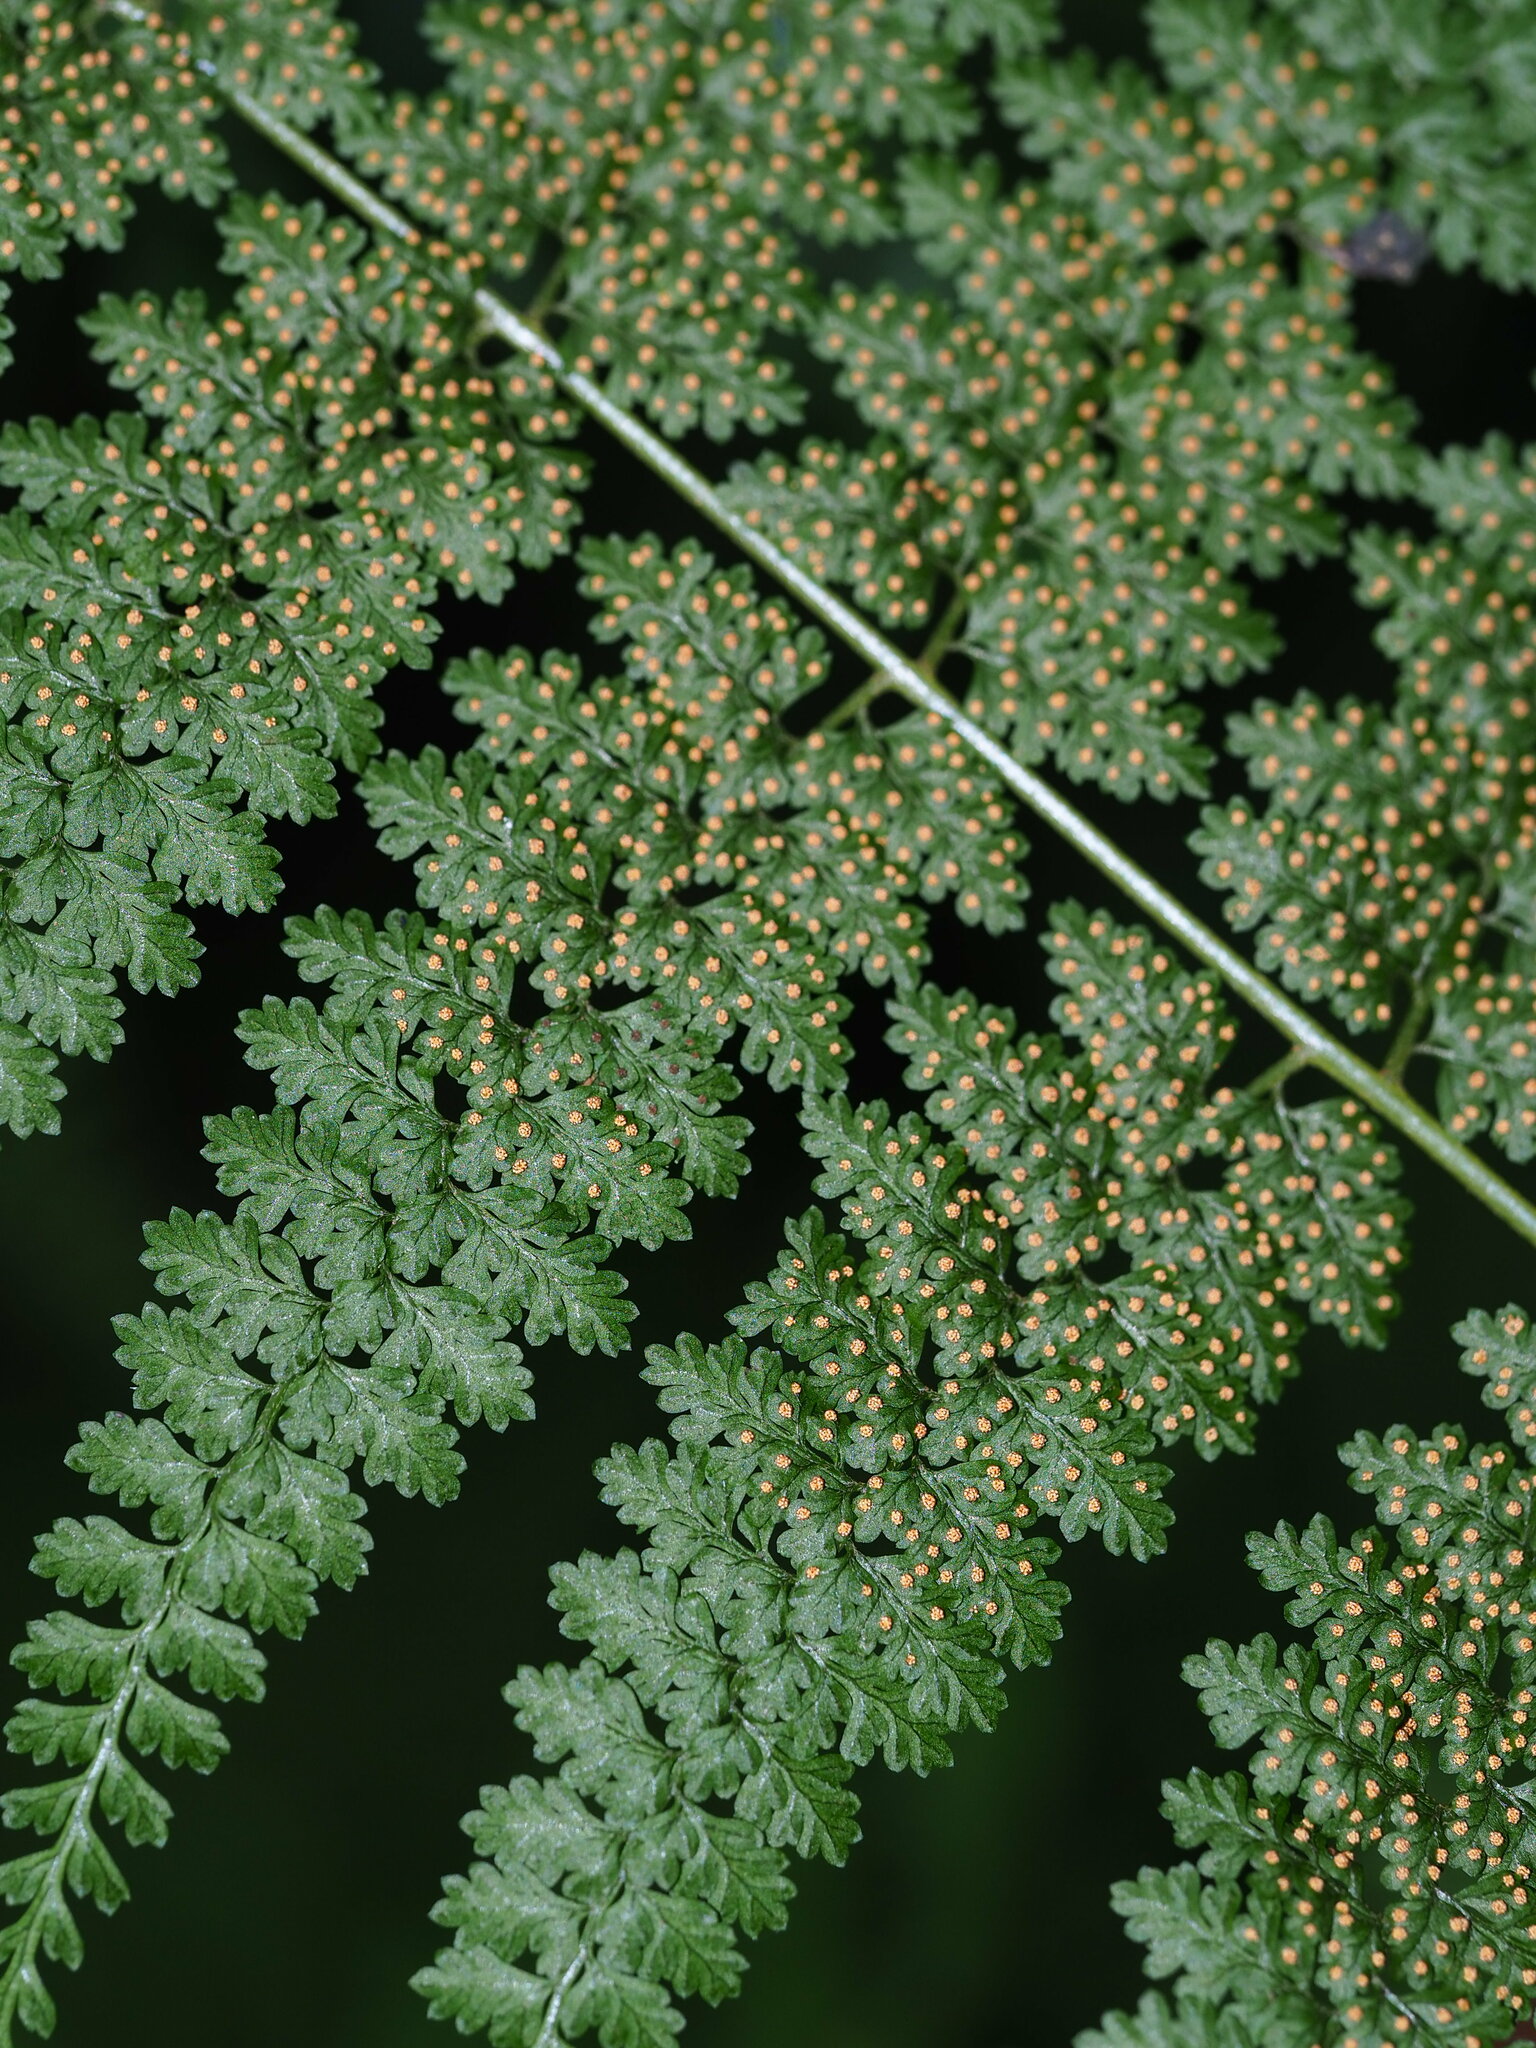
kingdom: Plantae
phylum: Tracheophyta
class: Polypodiopsida
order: Polypodiales
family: Dennstaedtiaceae
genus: Monachosorum
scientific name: Monachosorum henryi
